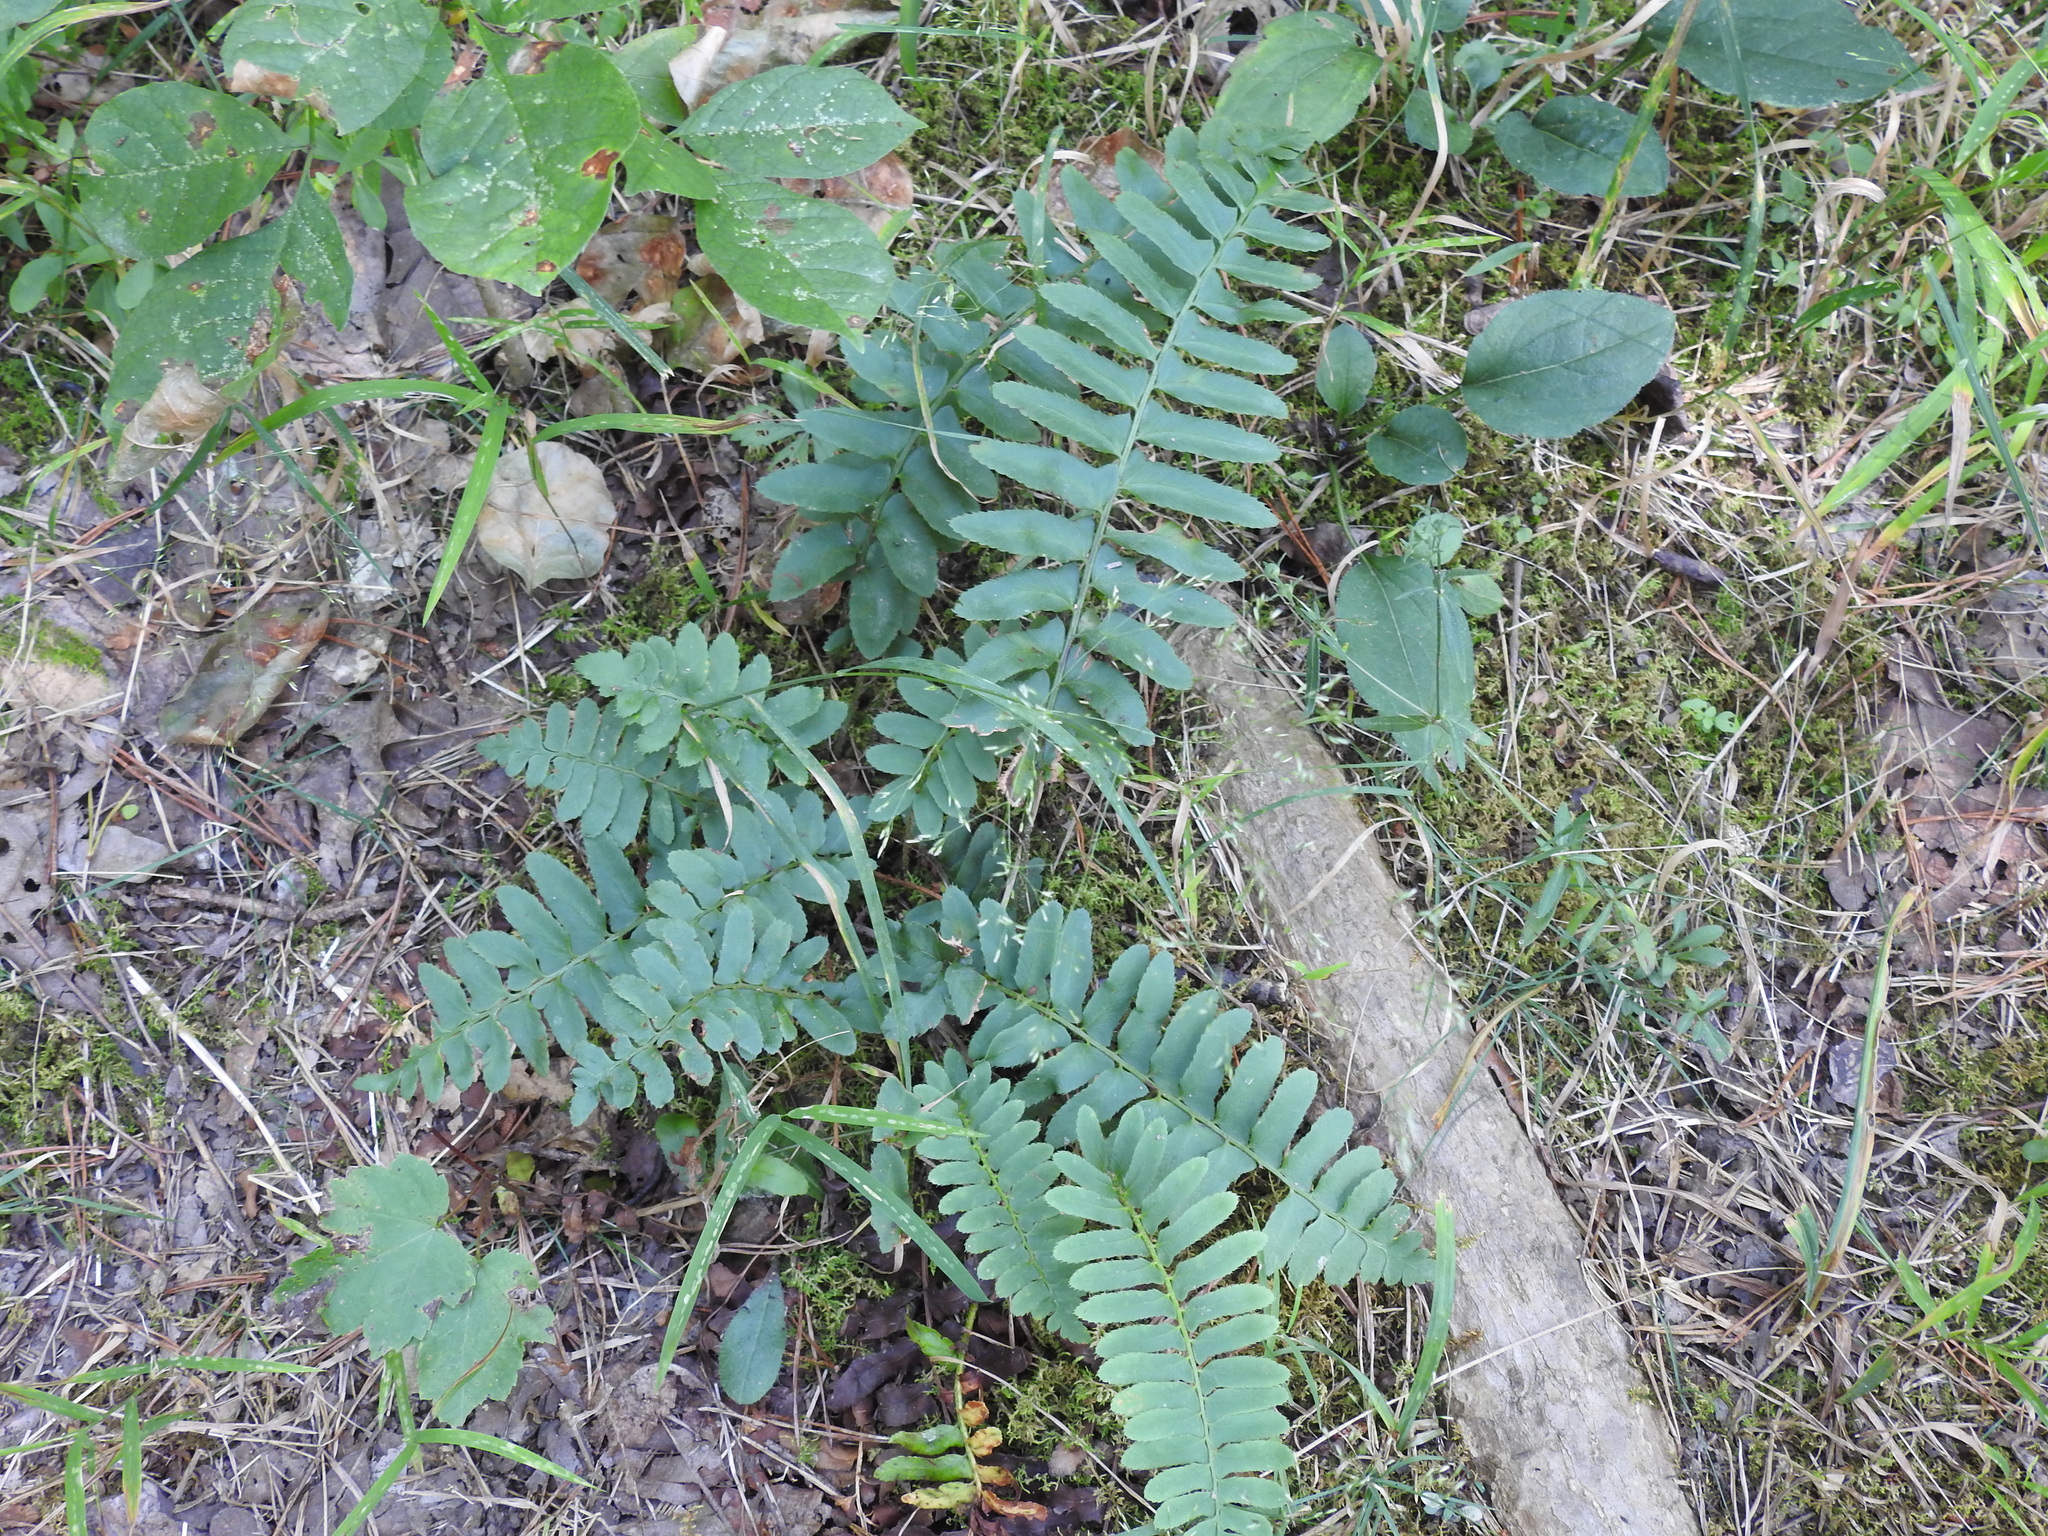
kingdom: Plantae
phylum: Tracheophyta
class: Polypodiopsida
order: Polypodiales
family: Dryopteridaceae
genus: Polystichum
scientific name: Polystichum acrostichoides
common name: Christmas fern
